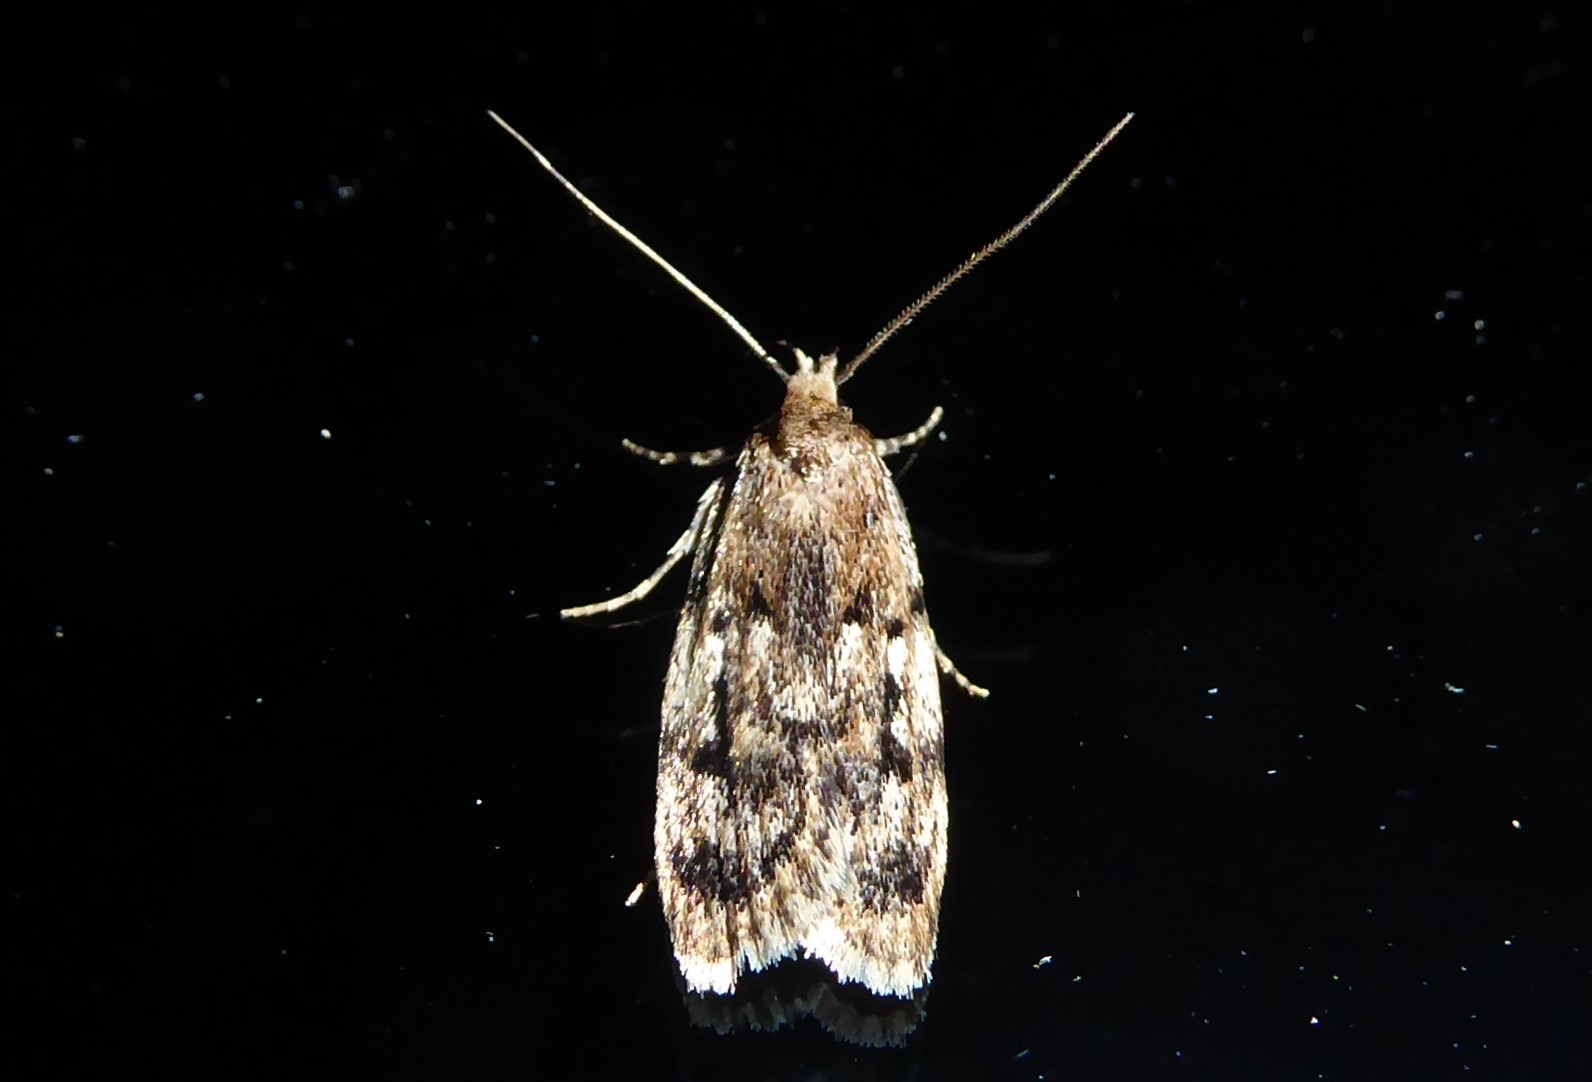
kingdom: Animalia
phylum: Arthropoda
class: Insecta
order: Lepidoptera
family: Oecophoridae
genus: Barea
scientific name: Barea exarcha
